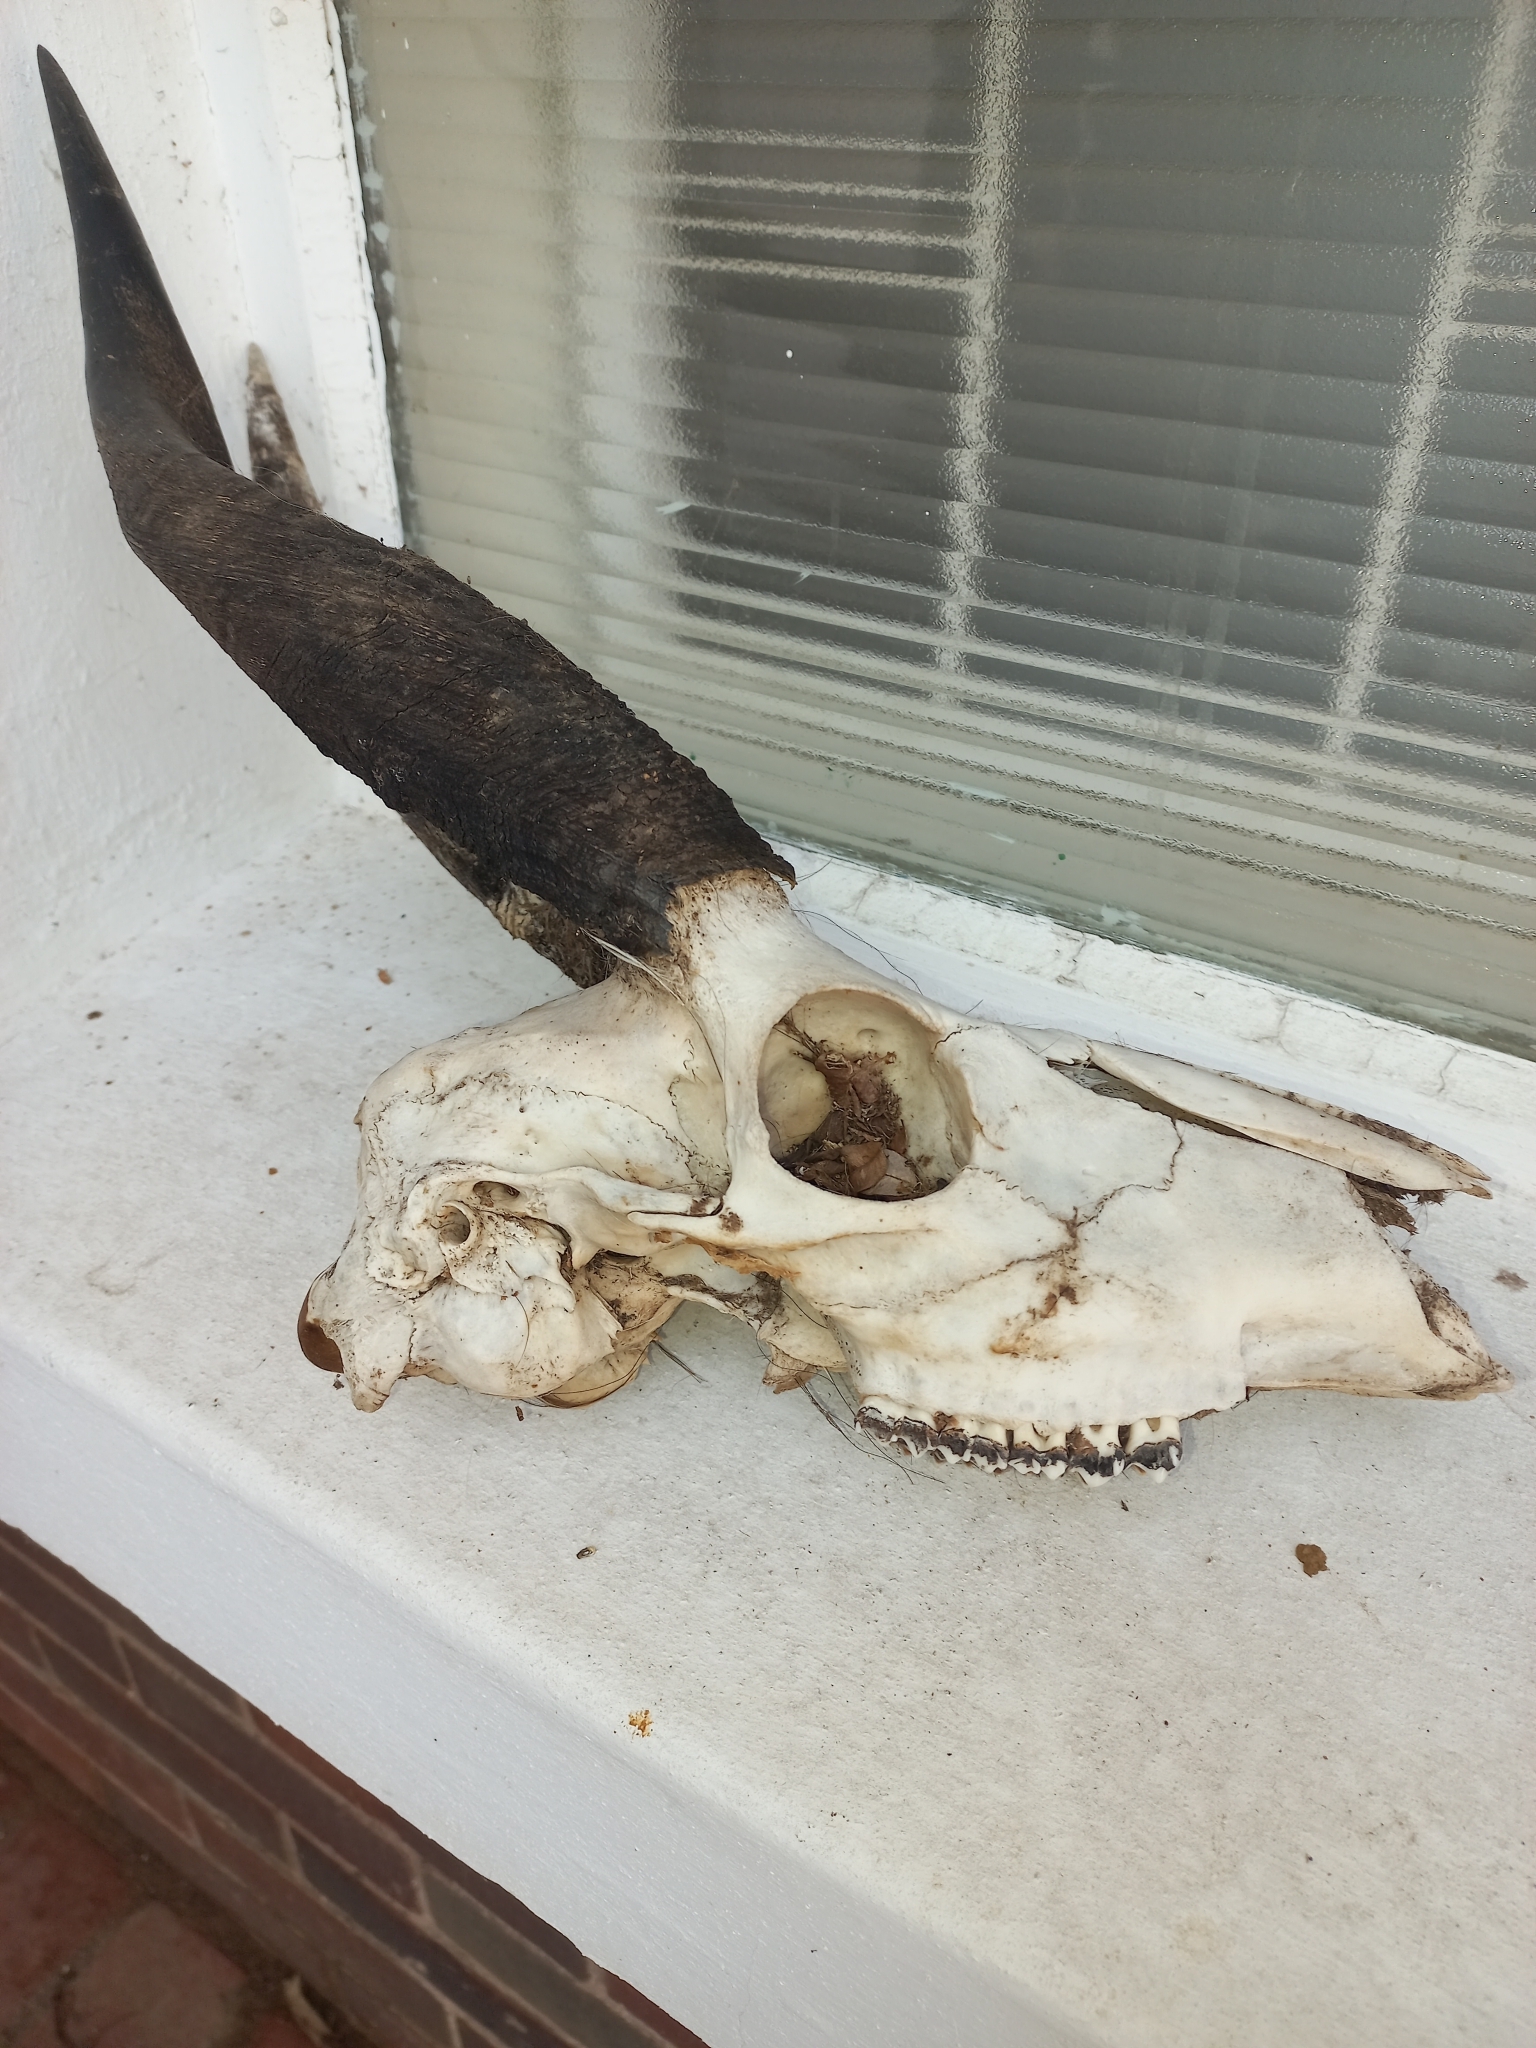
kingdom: Animalia
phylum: Chordata
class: Mammalia
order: Artiodactyla
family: Bovidae
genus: Tragelaphus
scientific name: Tragelaphus scriptus
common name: Bushbuck
